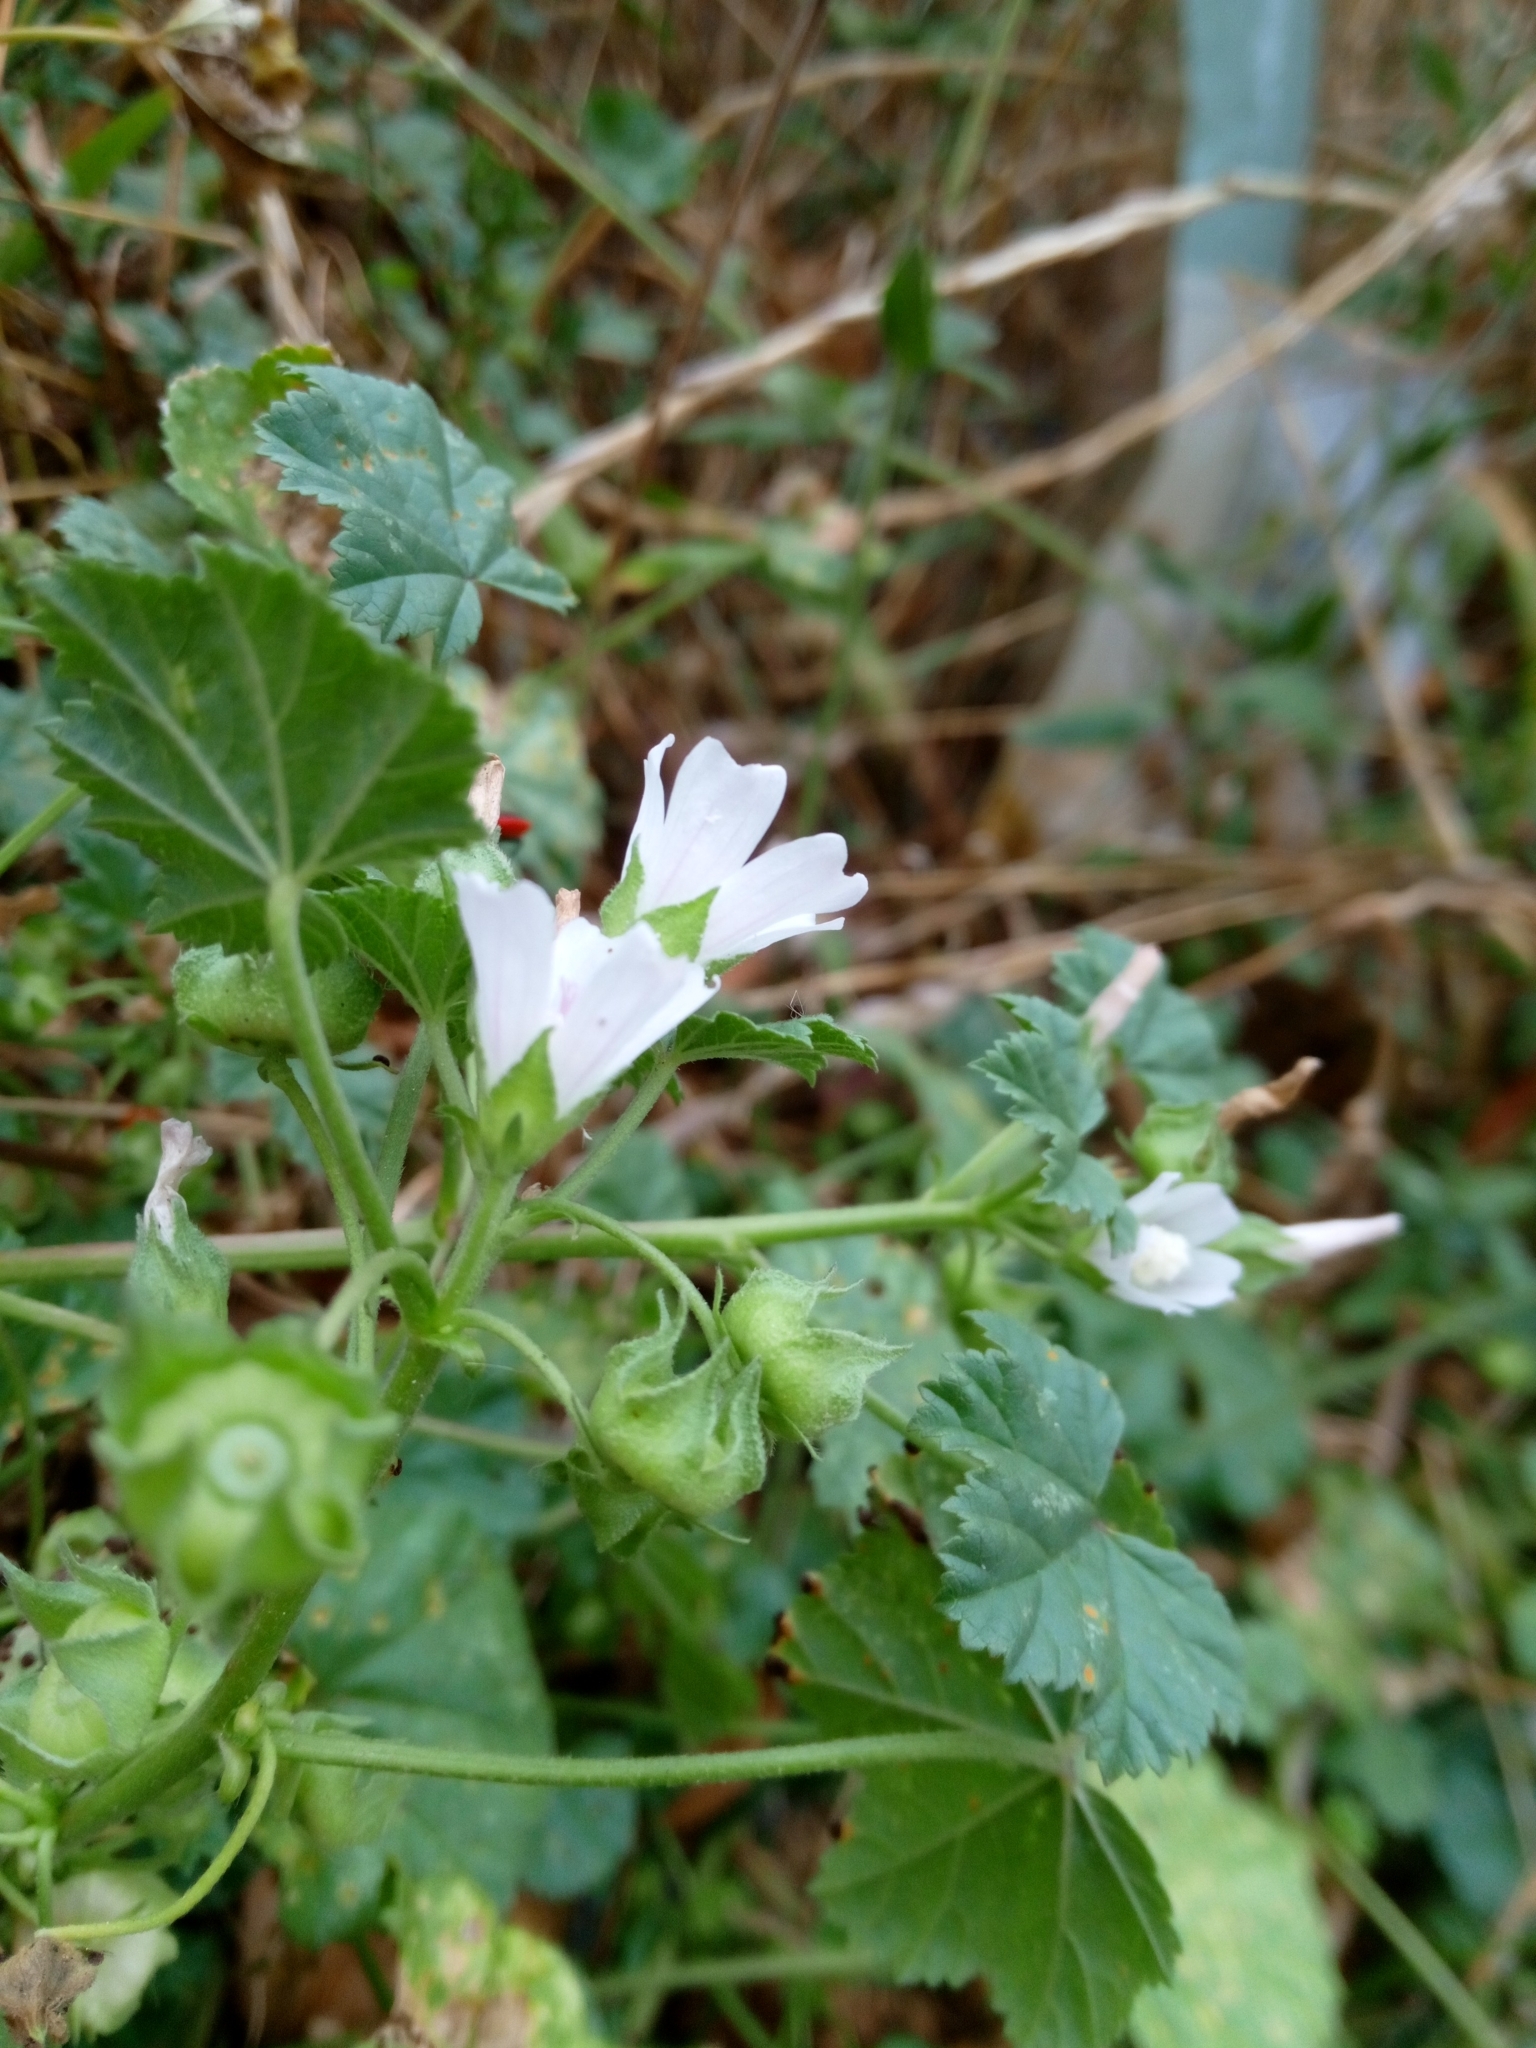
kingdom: Plantae
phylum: Tracheophyta
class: Magnoliopsida
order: Malvales
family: Malvaceae
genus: Malva
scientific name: Malva neglecta
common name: Common mallow
